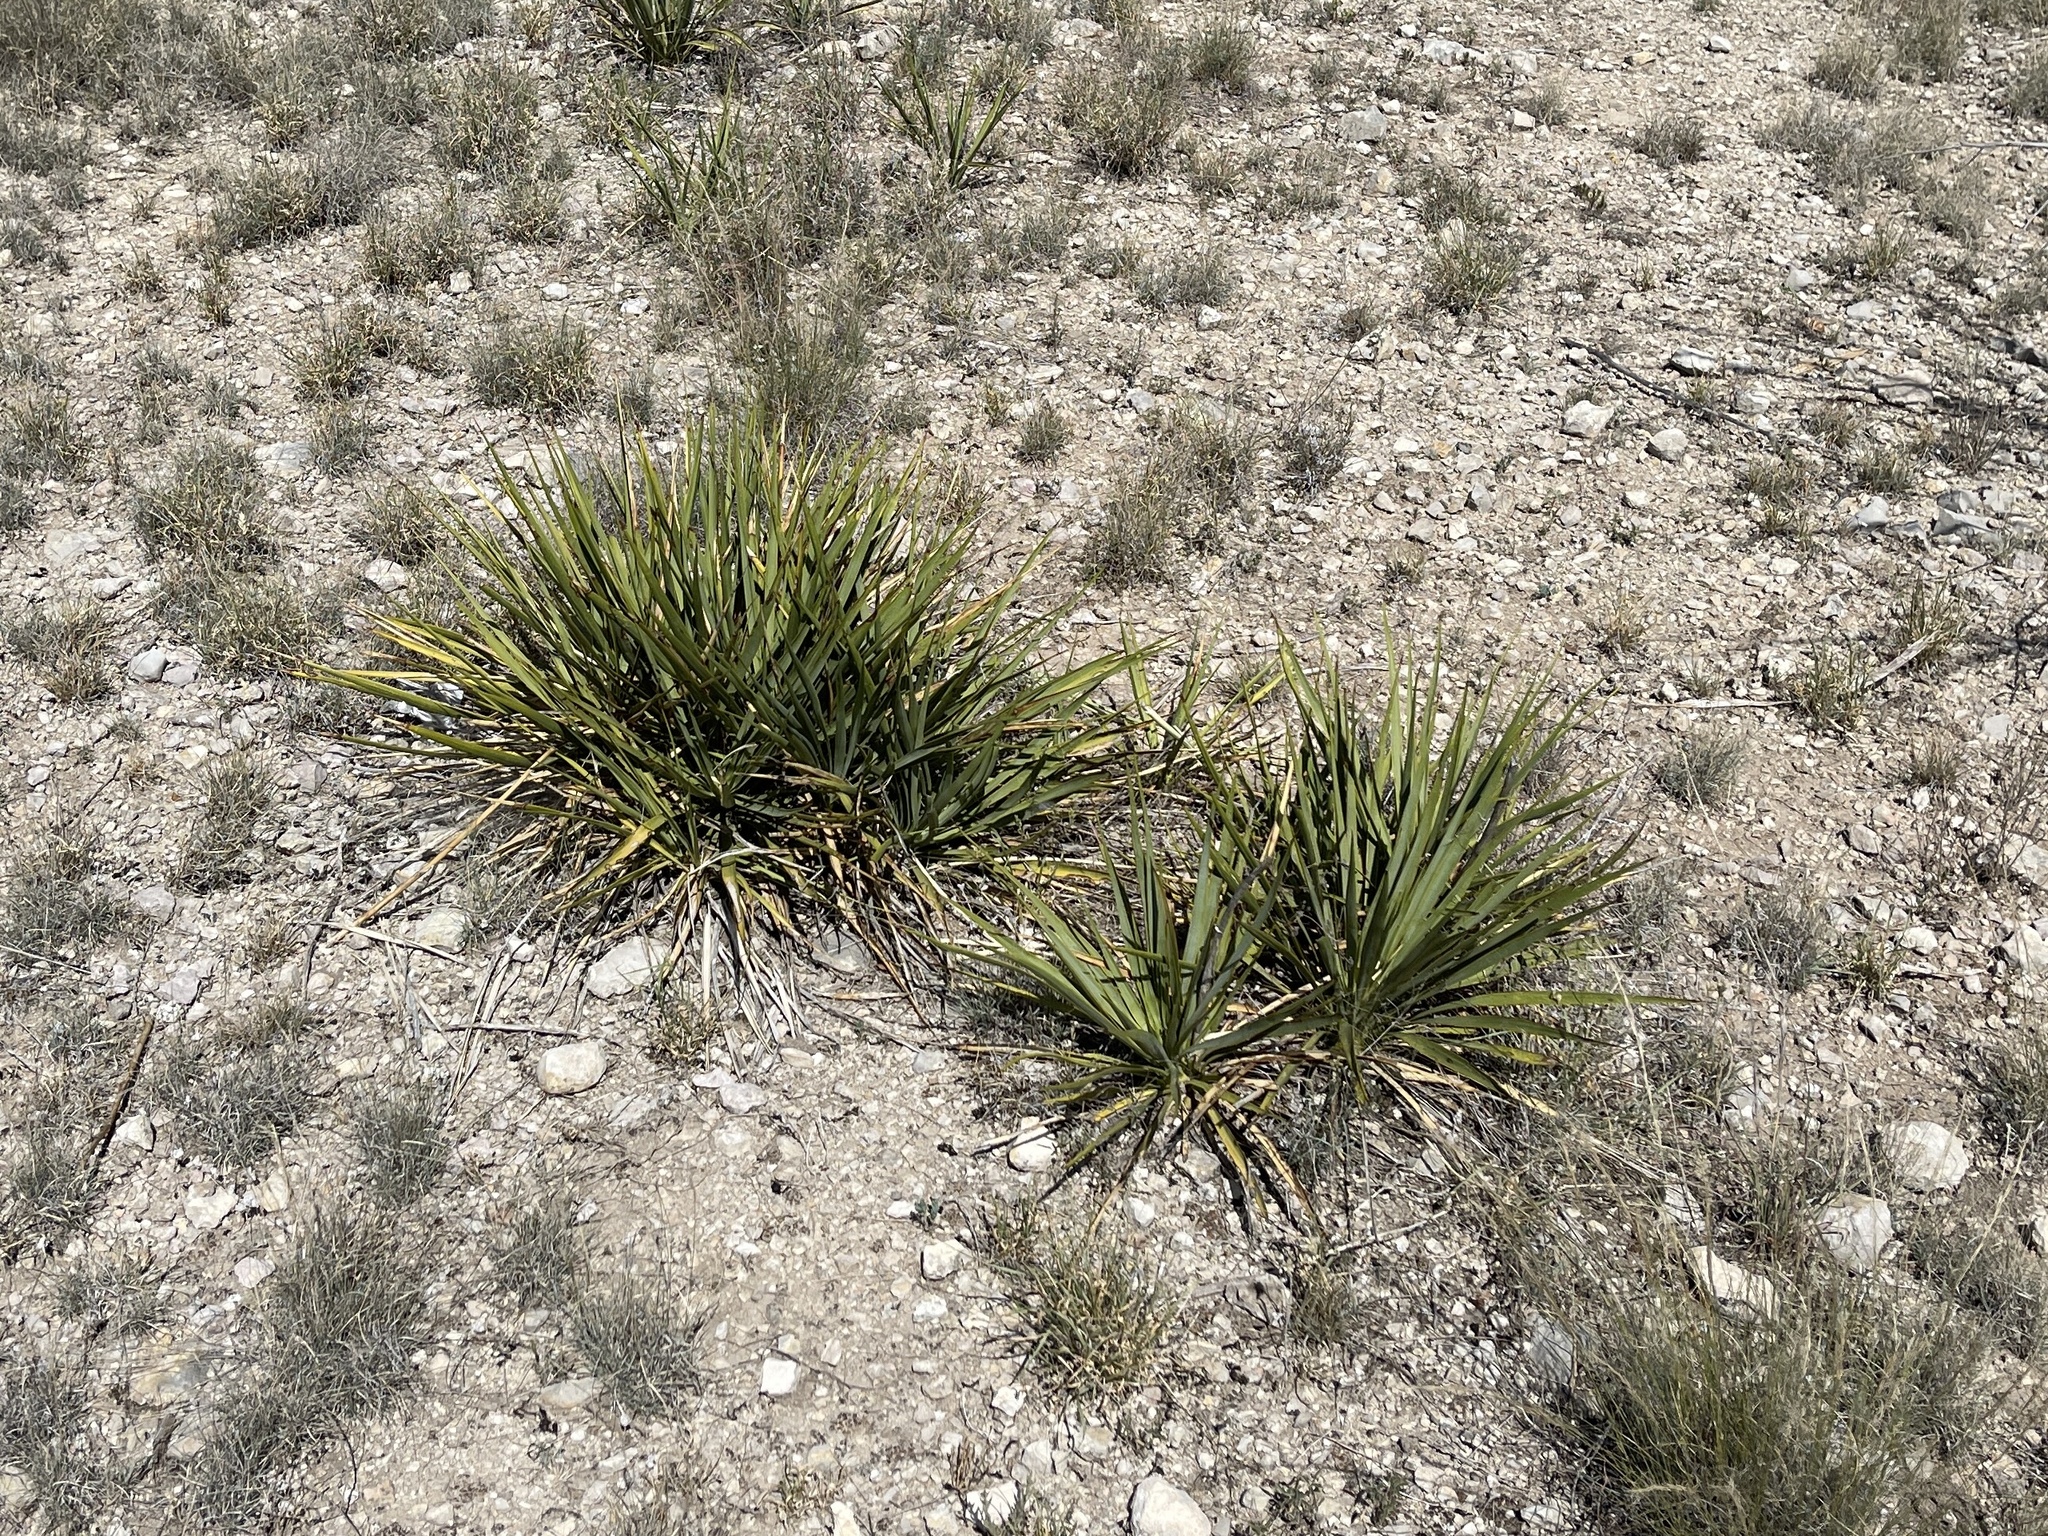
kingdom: Plantae
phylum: Tracheophyta
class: Liliopsida
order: Asparagales
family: Asparagaceae
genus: Yucca
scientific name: Yucca reverchonii
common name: San angelo yucca
